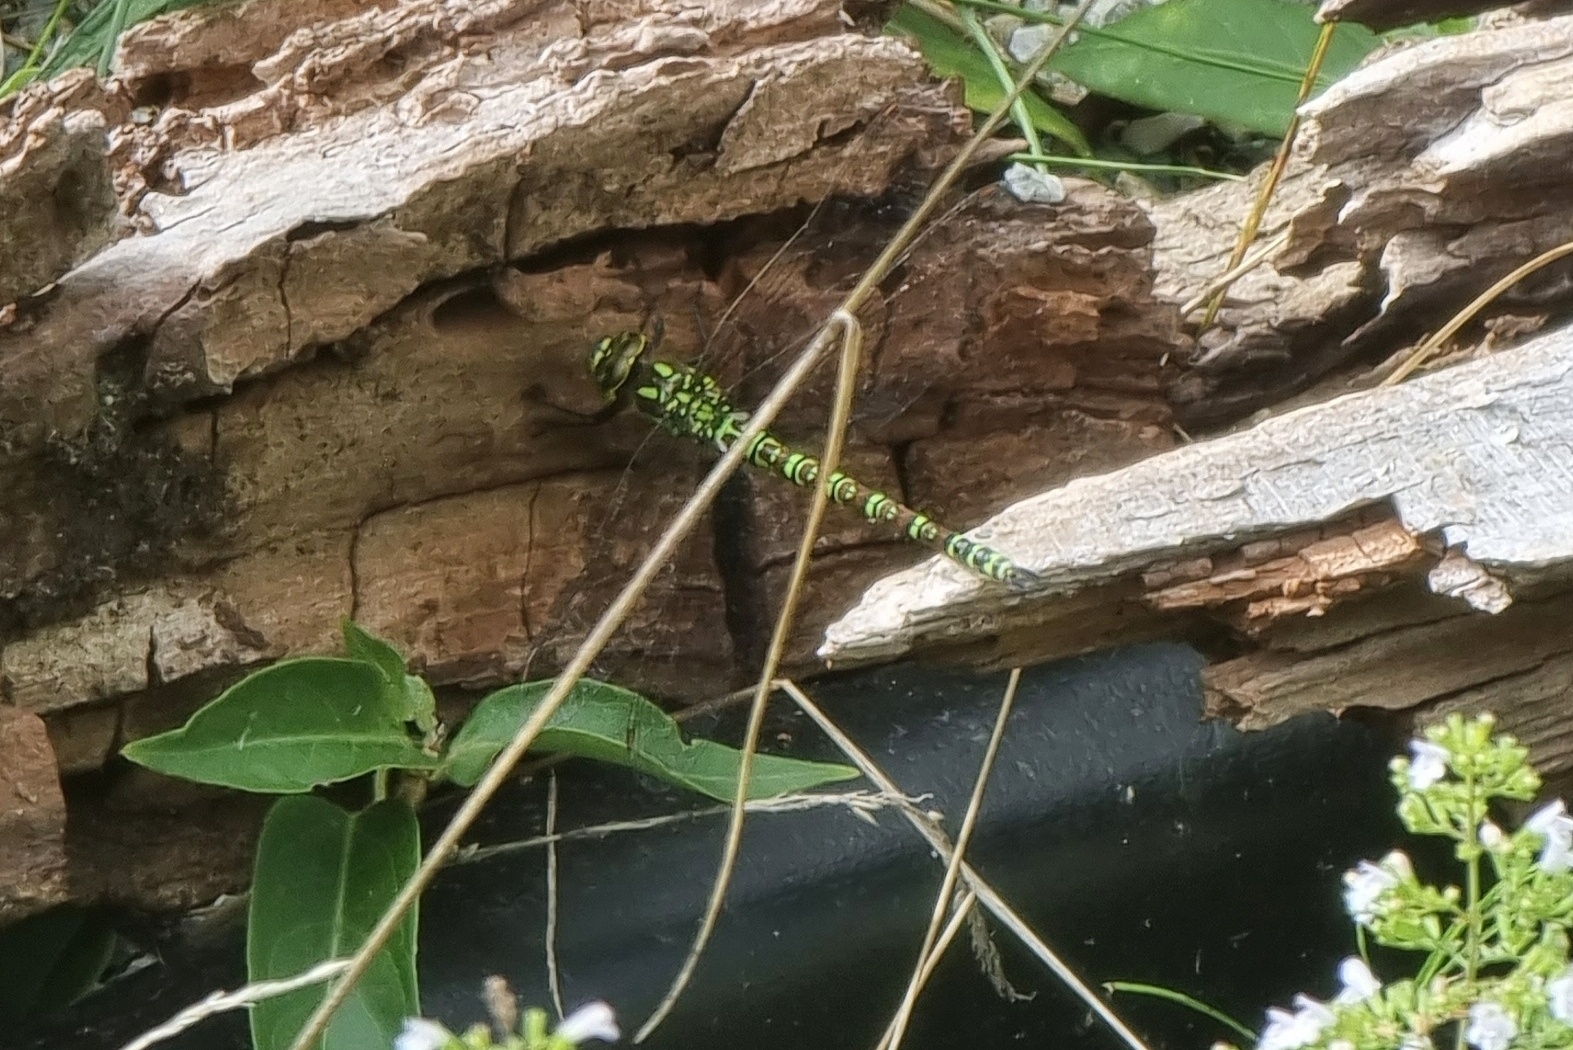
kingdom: Animalia
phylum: Arthropoda
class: Insecta
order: Odonata
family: Aeshnidae
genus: Aeshna
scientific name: Aeshna cyanea
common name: Southern hawker
